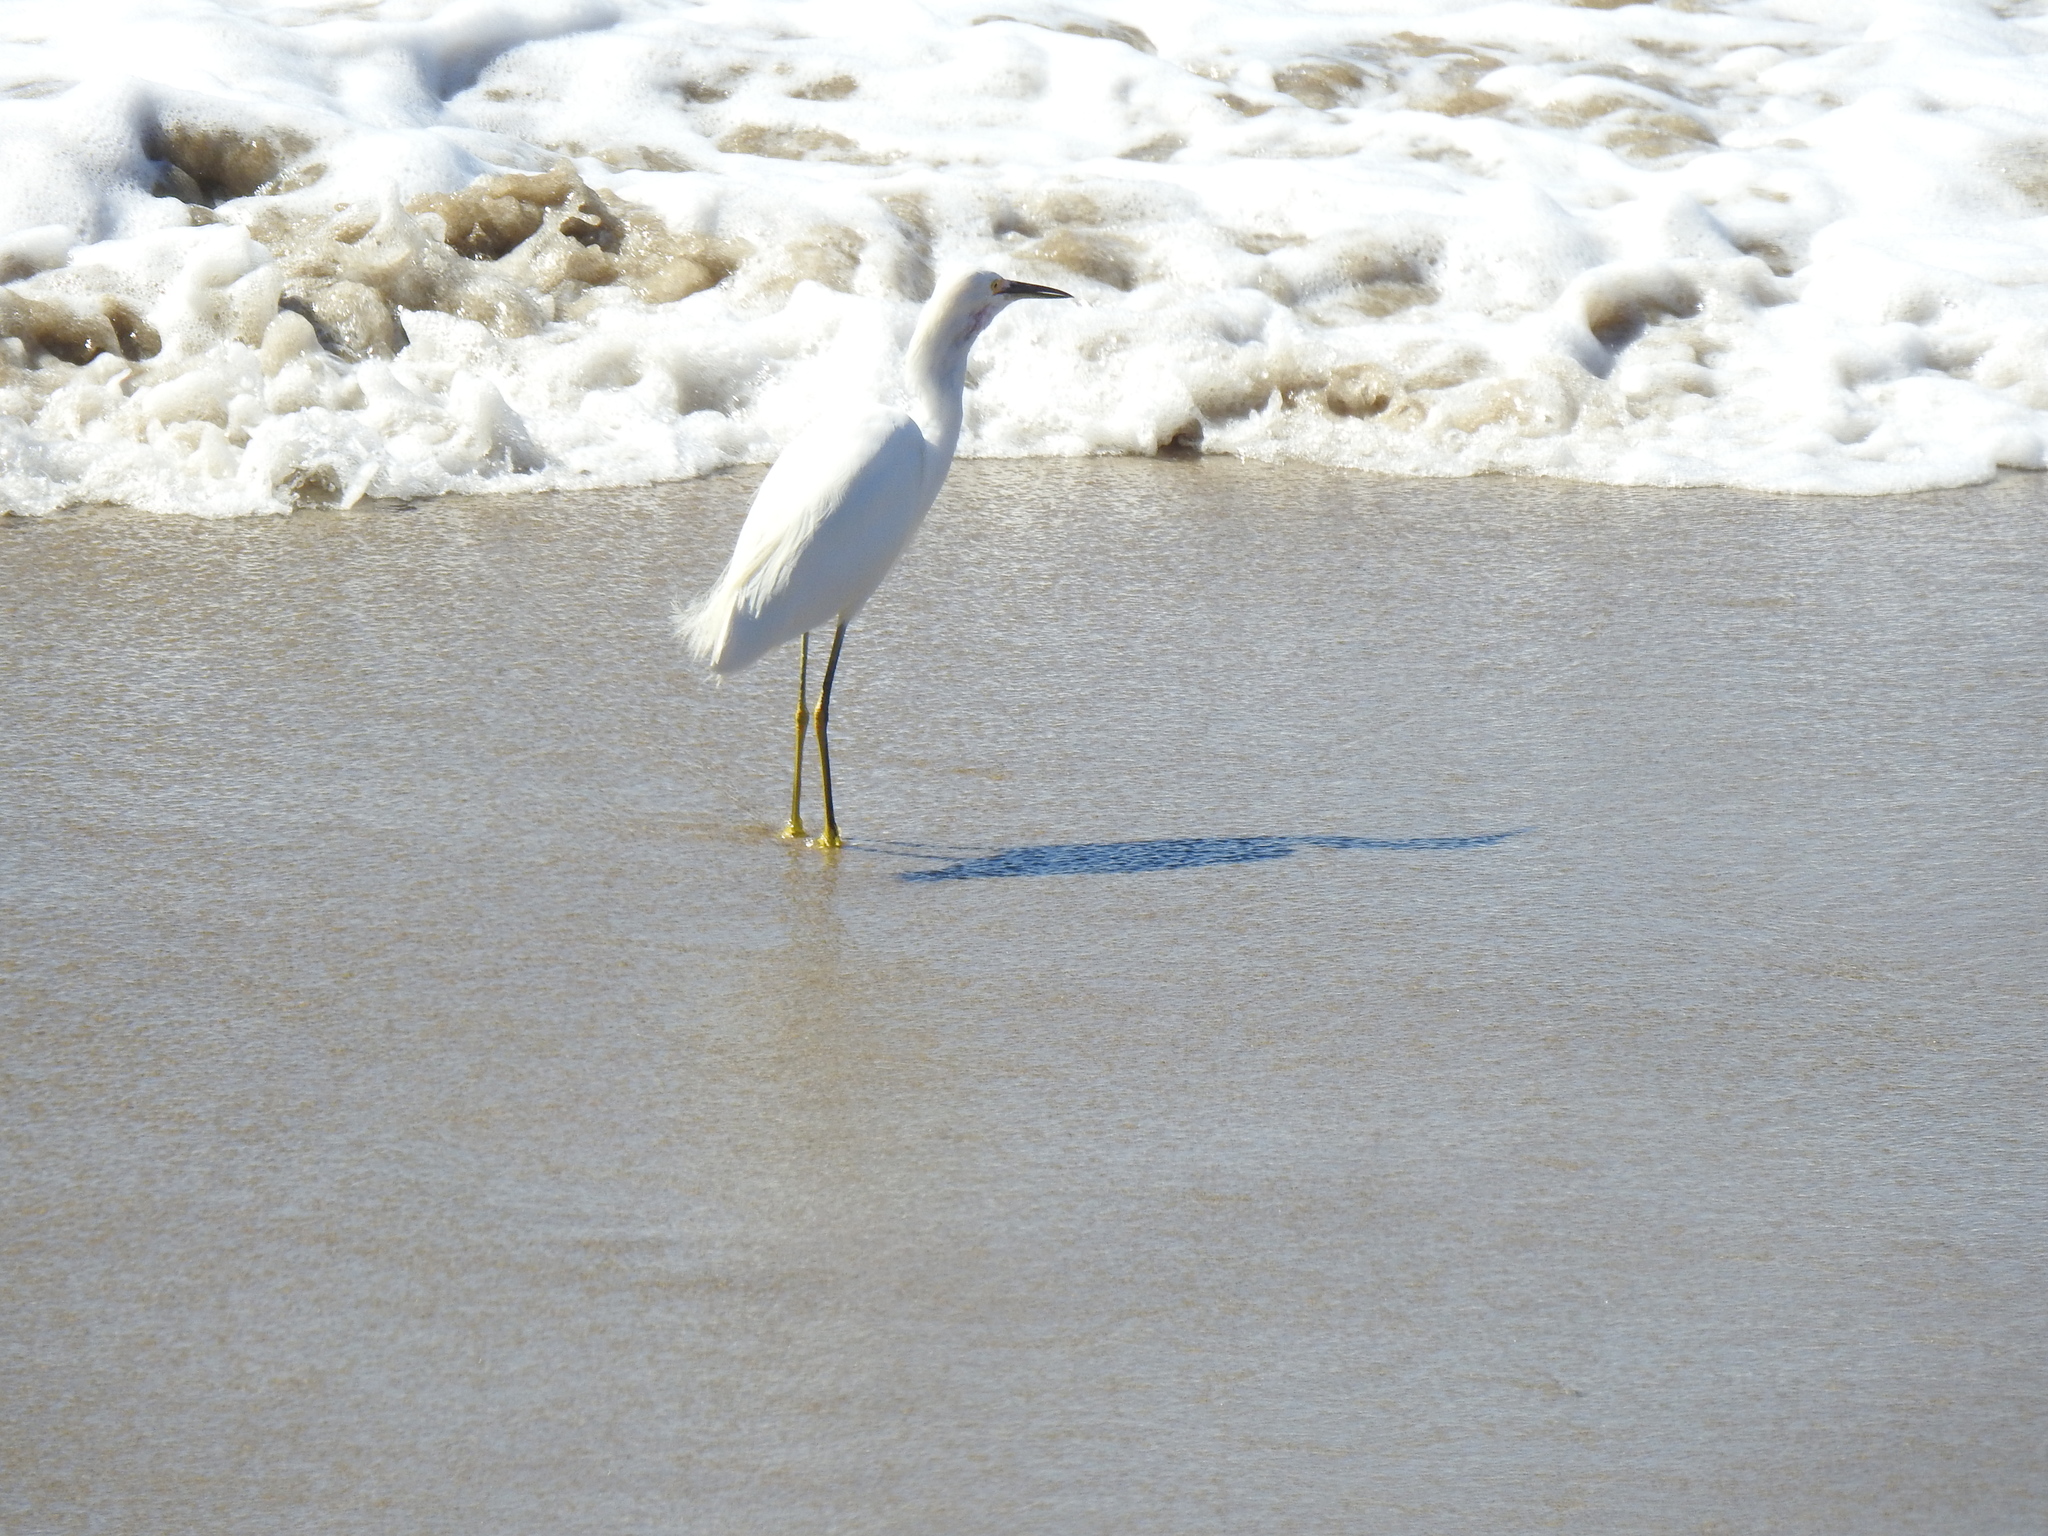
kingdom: Animalia
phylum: Chordata
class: Aves
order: Pelecaniformes
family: Ardeidae
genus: Egretta
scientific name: Egretta thula
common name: Snowy egret
